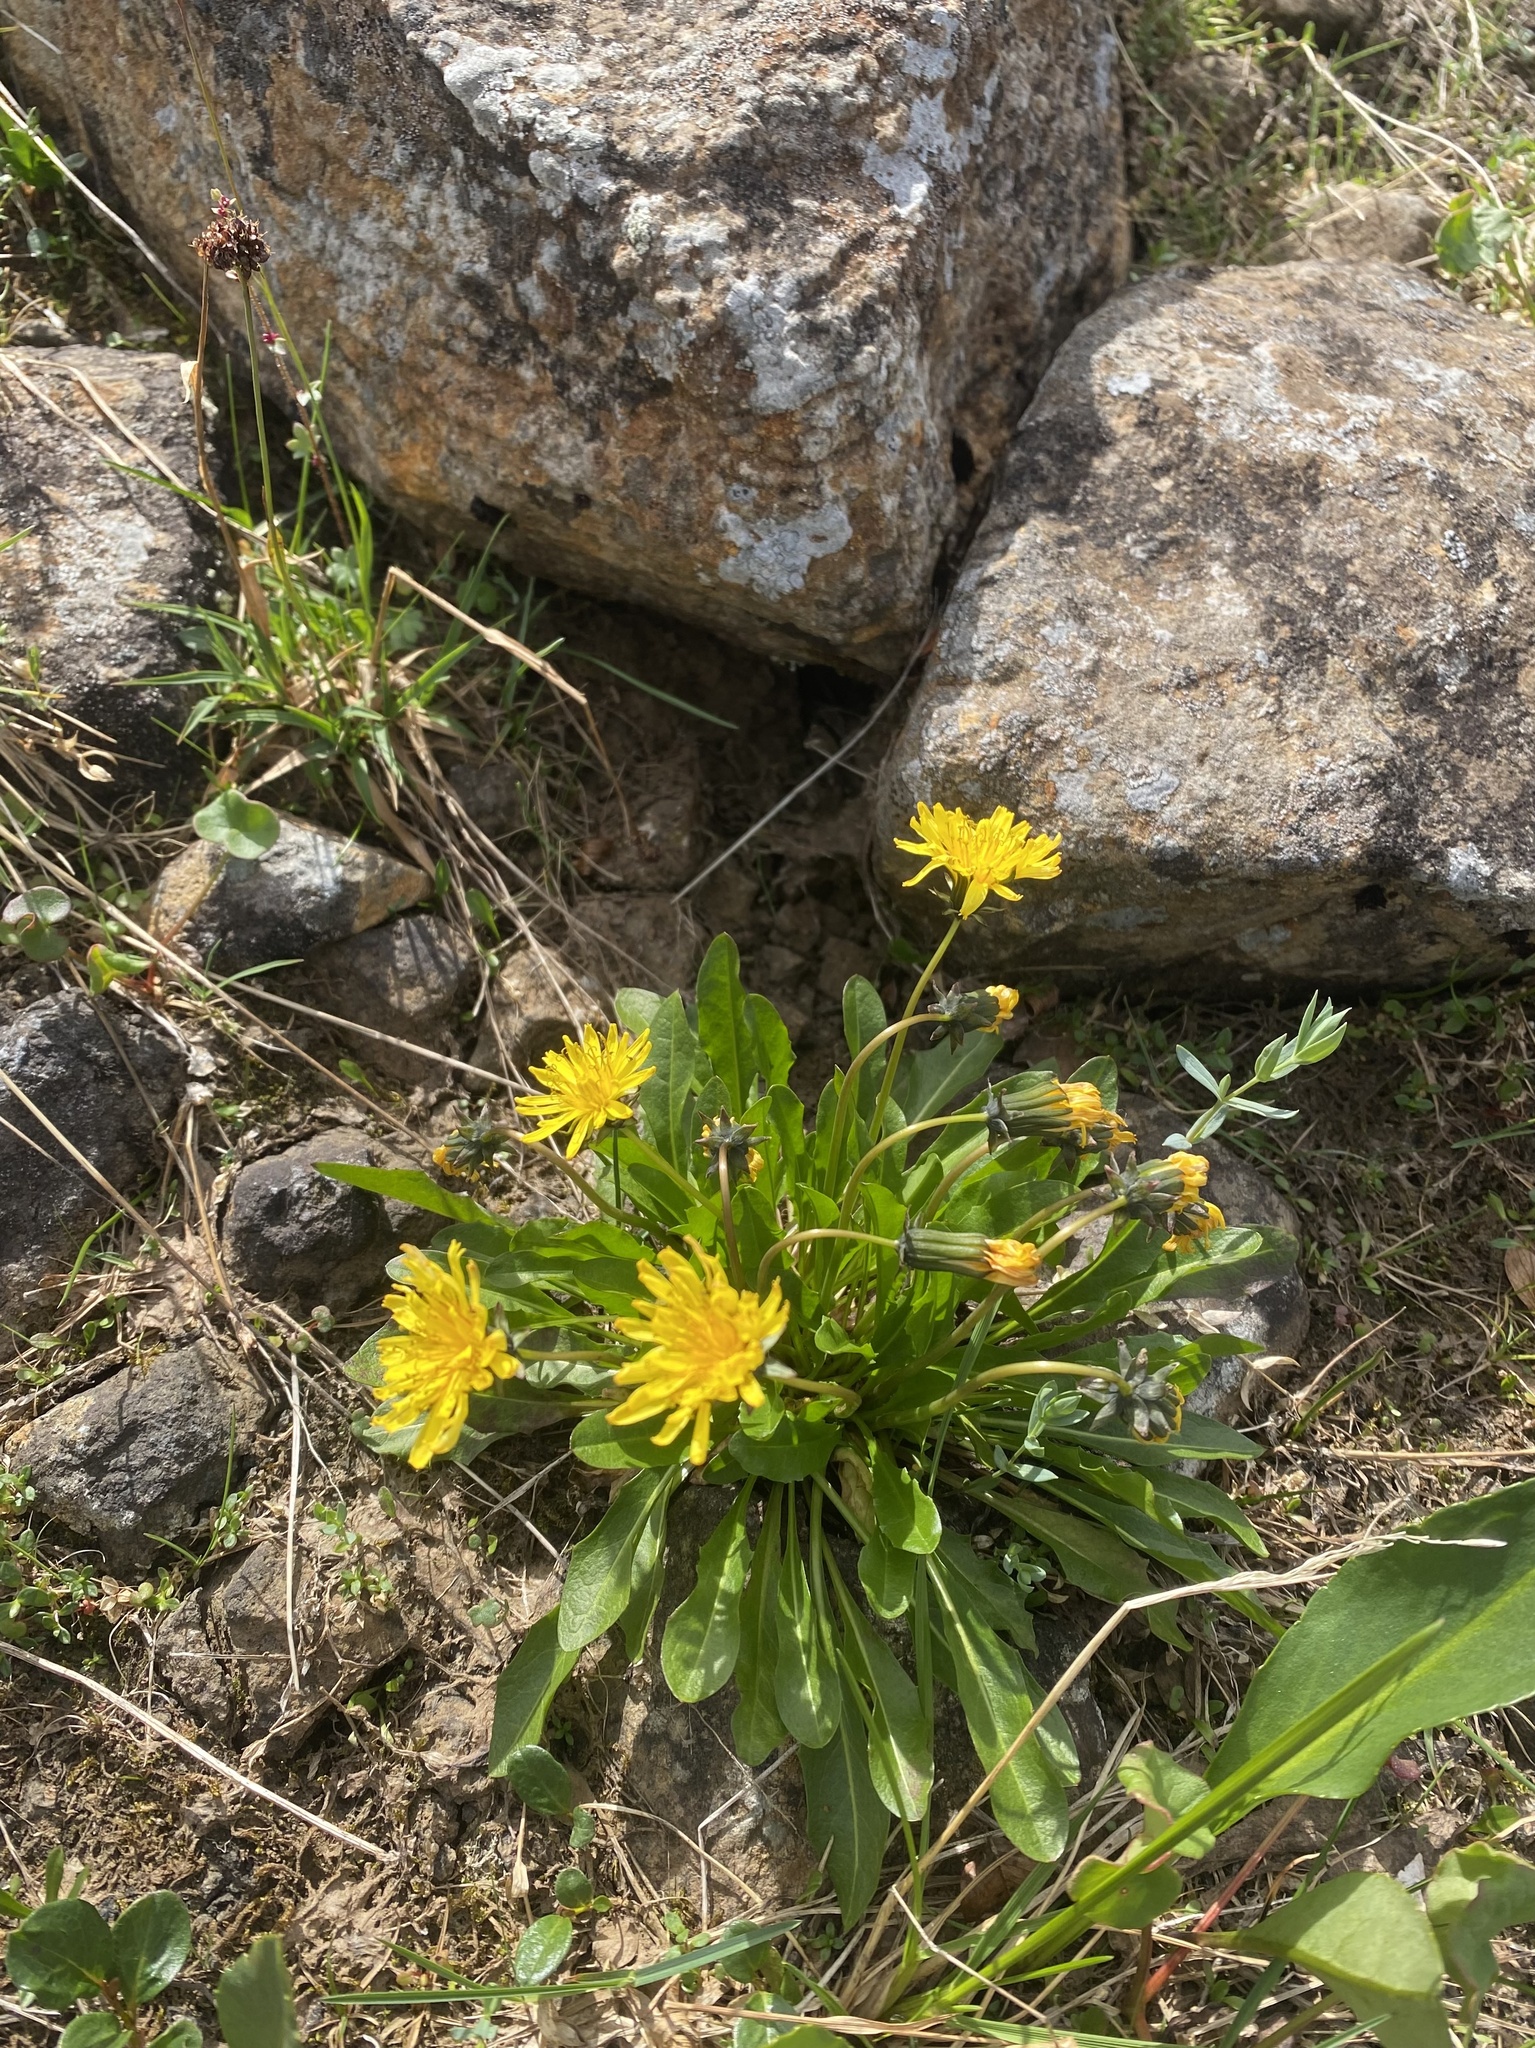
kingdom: Plantae
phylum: Tracheophyta
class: Magnoliopsida
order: Asterales
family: Asteraceae
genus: Taraxacum
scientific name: Taraxacum glabrum
